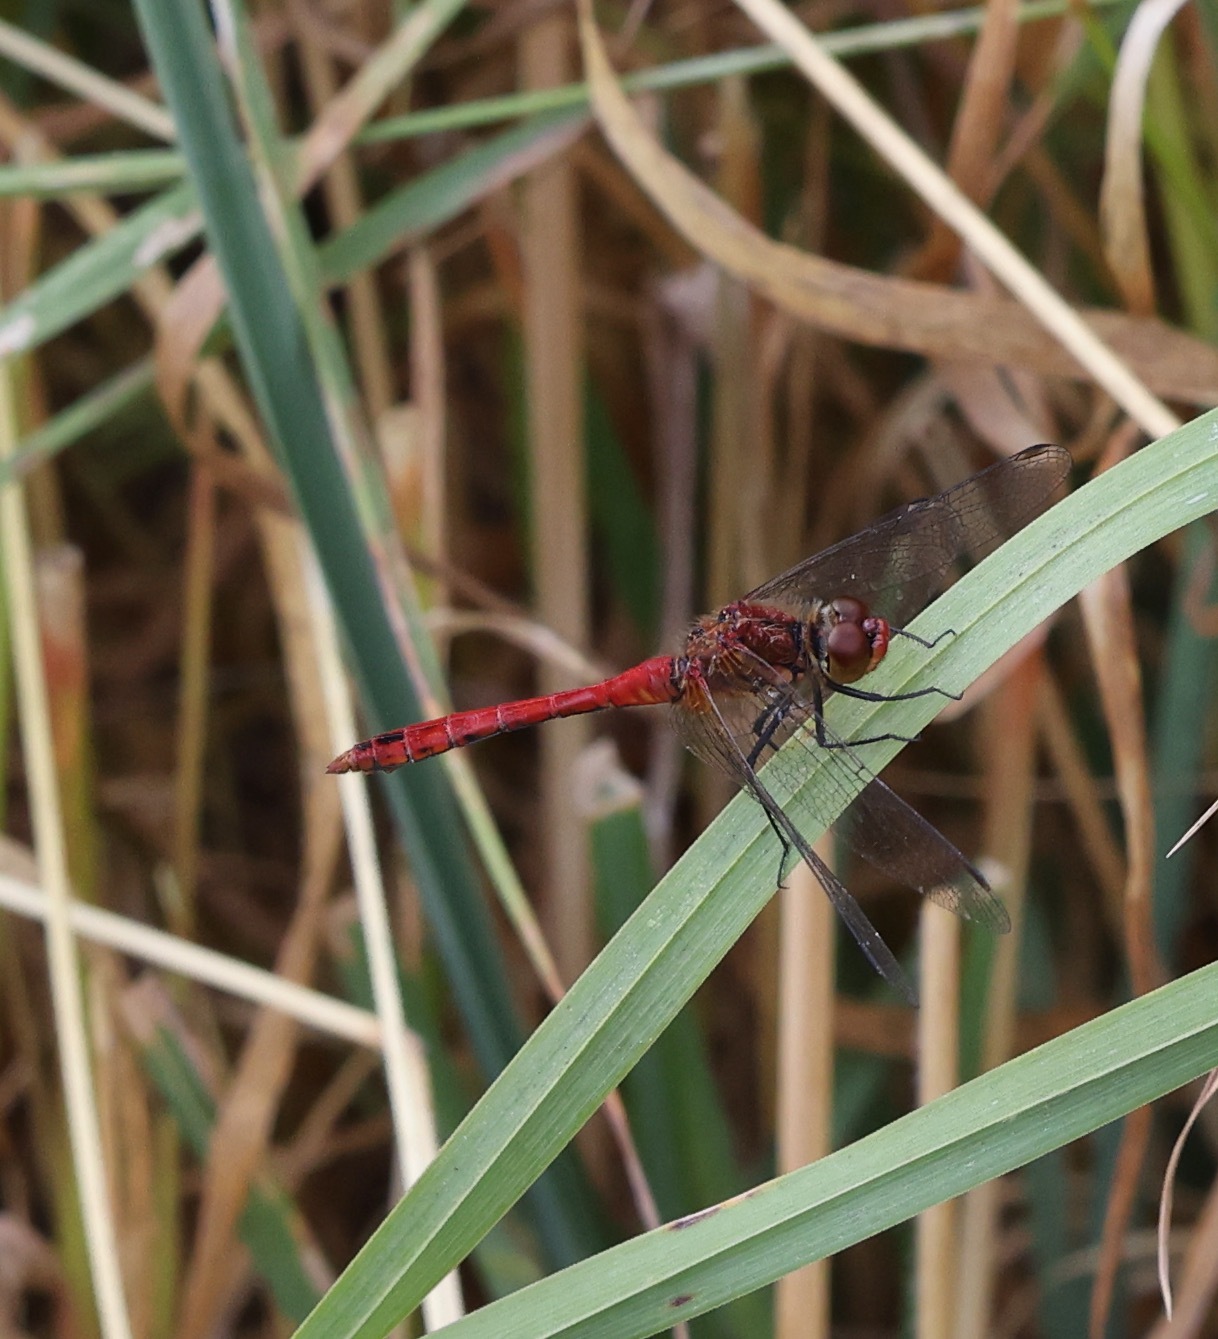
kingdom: Animalia
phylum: Arthropoda
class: Insecta
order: Odonata
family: Libellulidae
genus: Sympetrum
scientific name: Sympetrum sanguineum
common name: Ruddy darter
